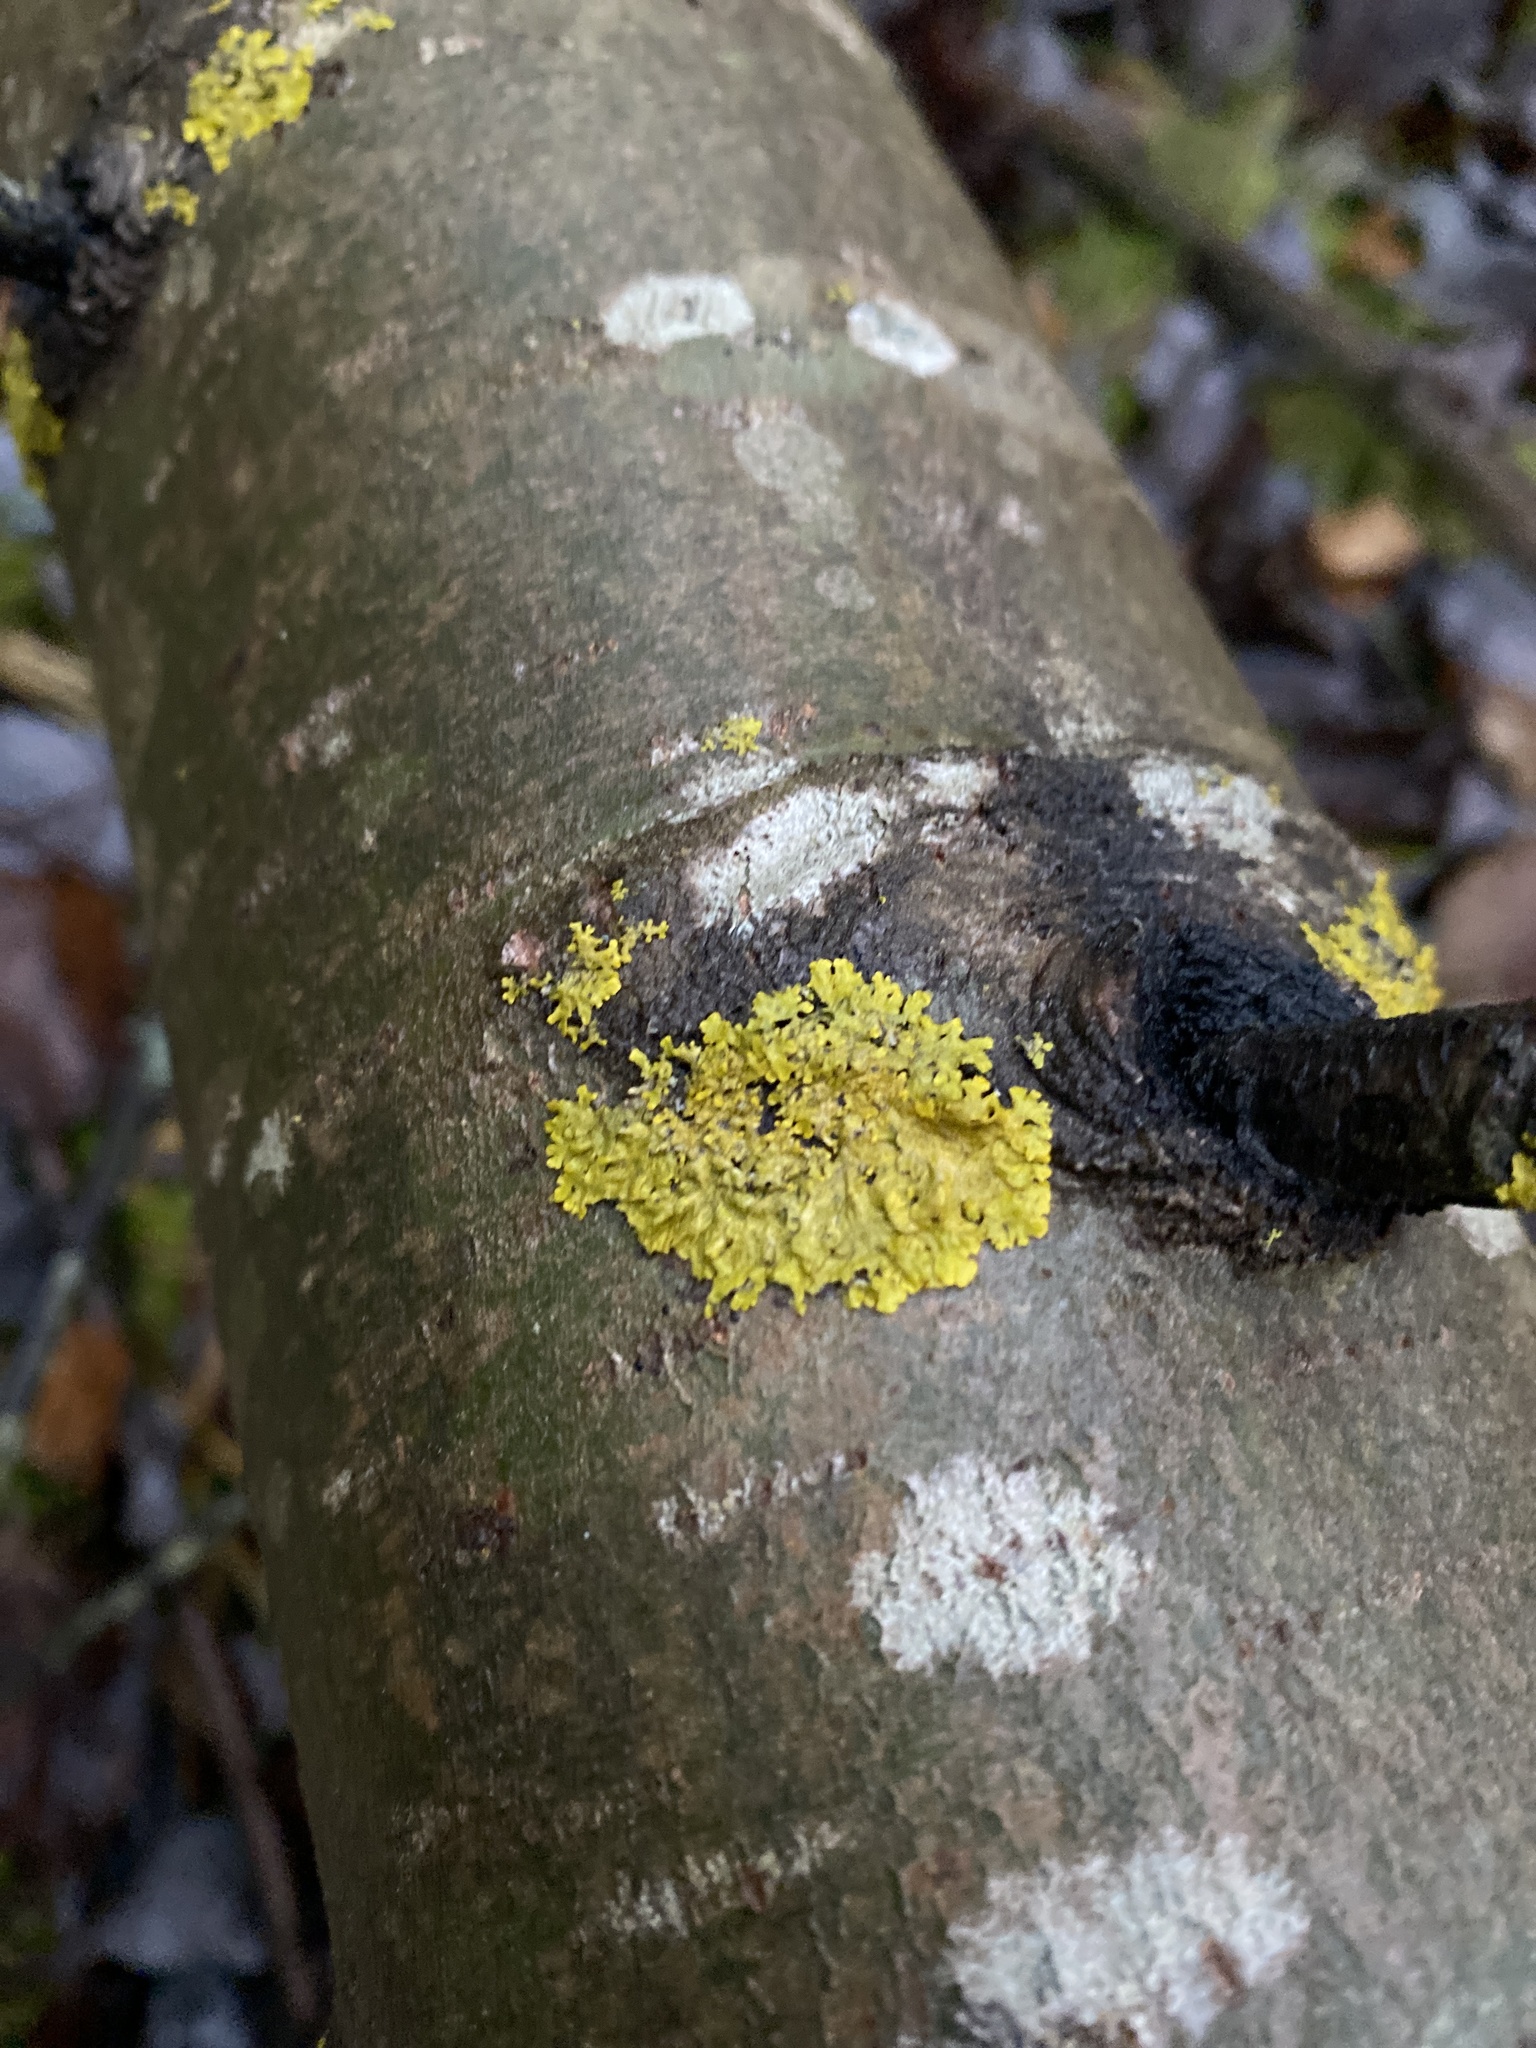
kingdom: Fungi
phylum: Ascomycota
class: Lecanoromycetes
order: Teloschistales
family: Teloschistaceae
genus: Xanthoria
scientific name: Xanthoria parietina
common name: Common orange lichen
